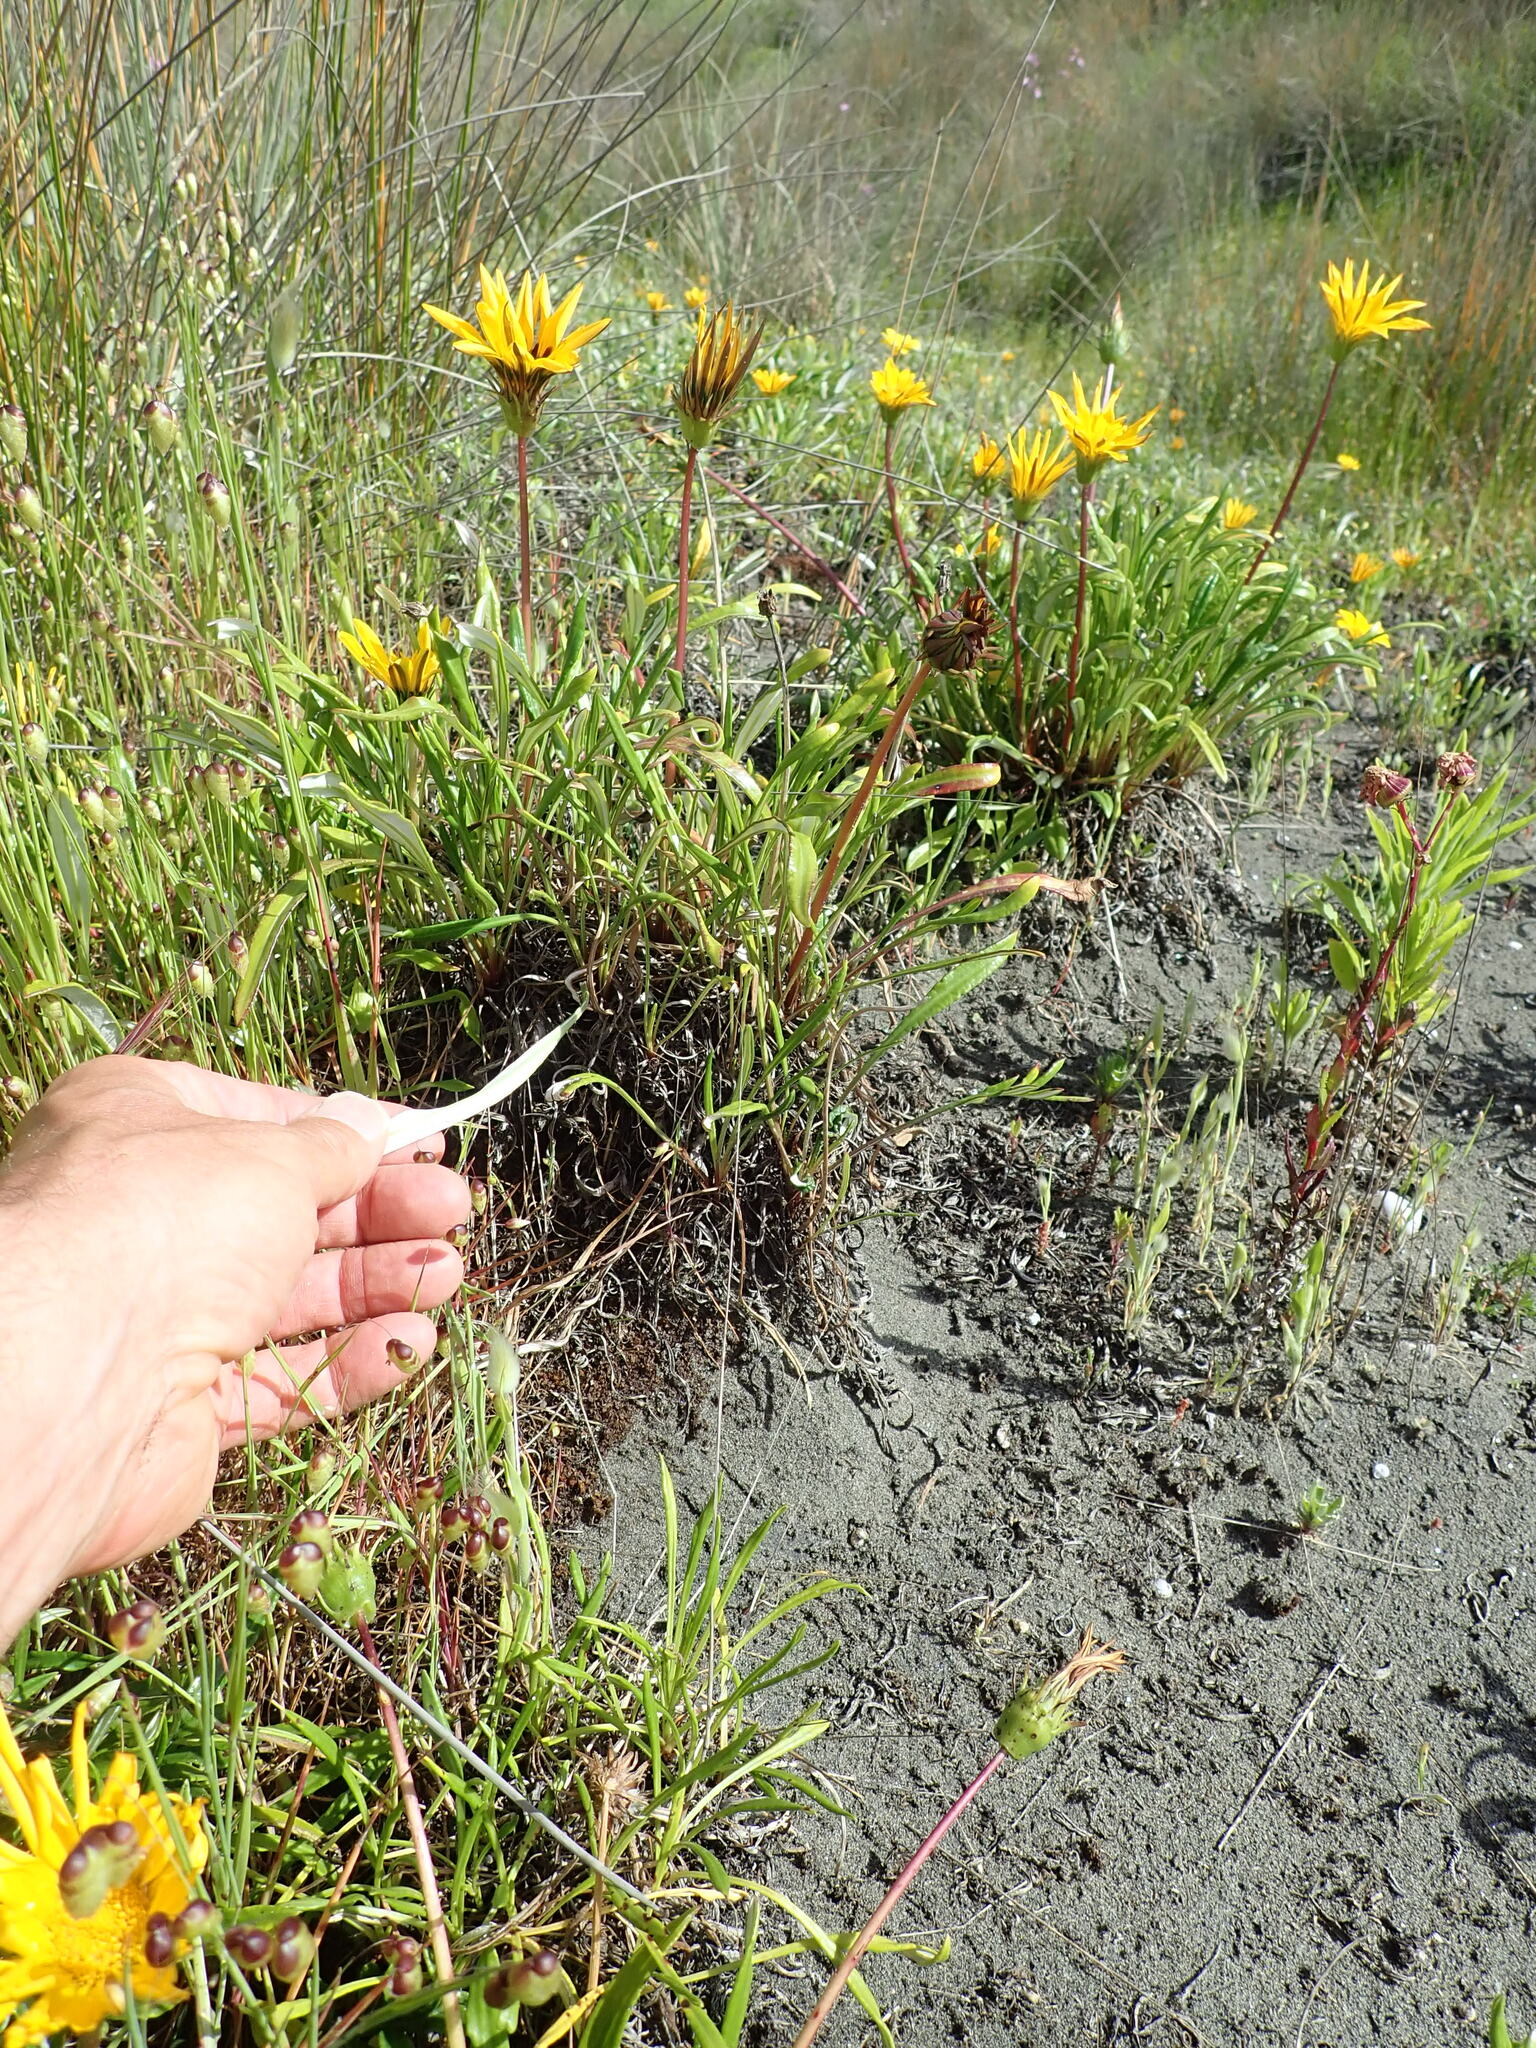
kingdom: Plantae
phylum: Tracheophyta
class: Magnoliopsida
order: Asterales
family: Asteraceae
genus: Gazania
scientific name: Gazania splendens
